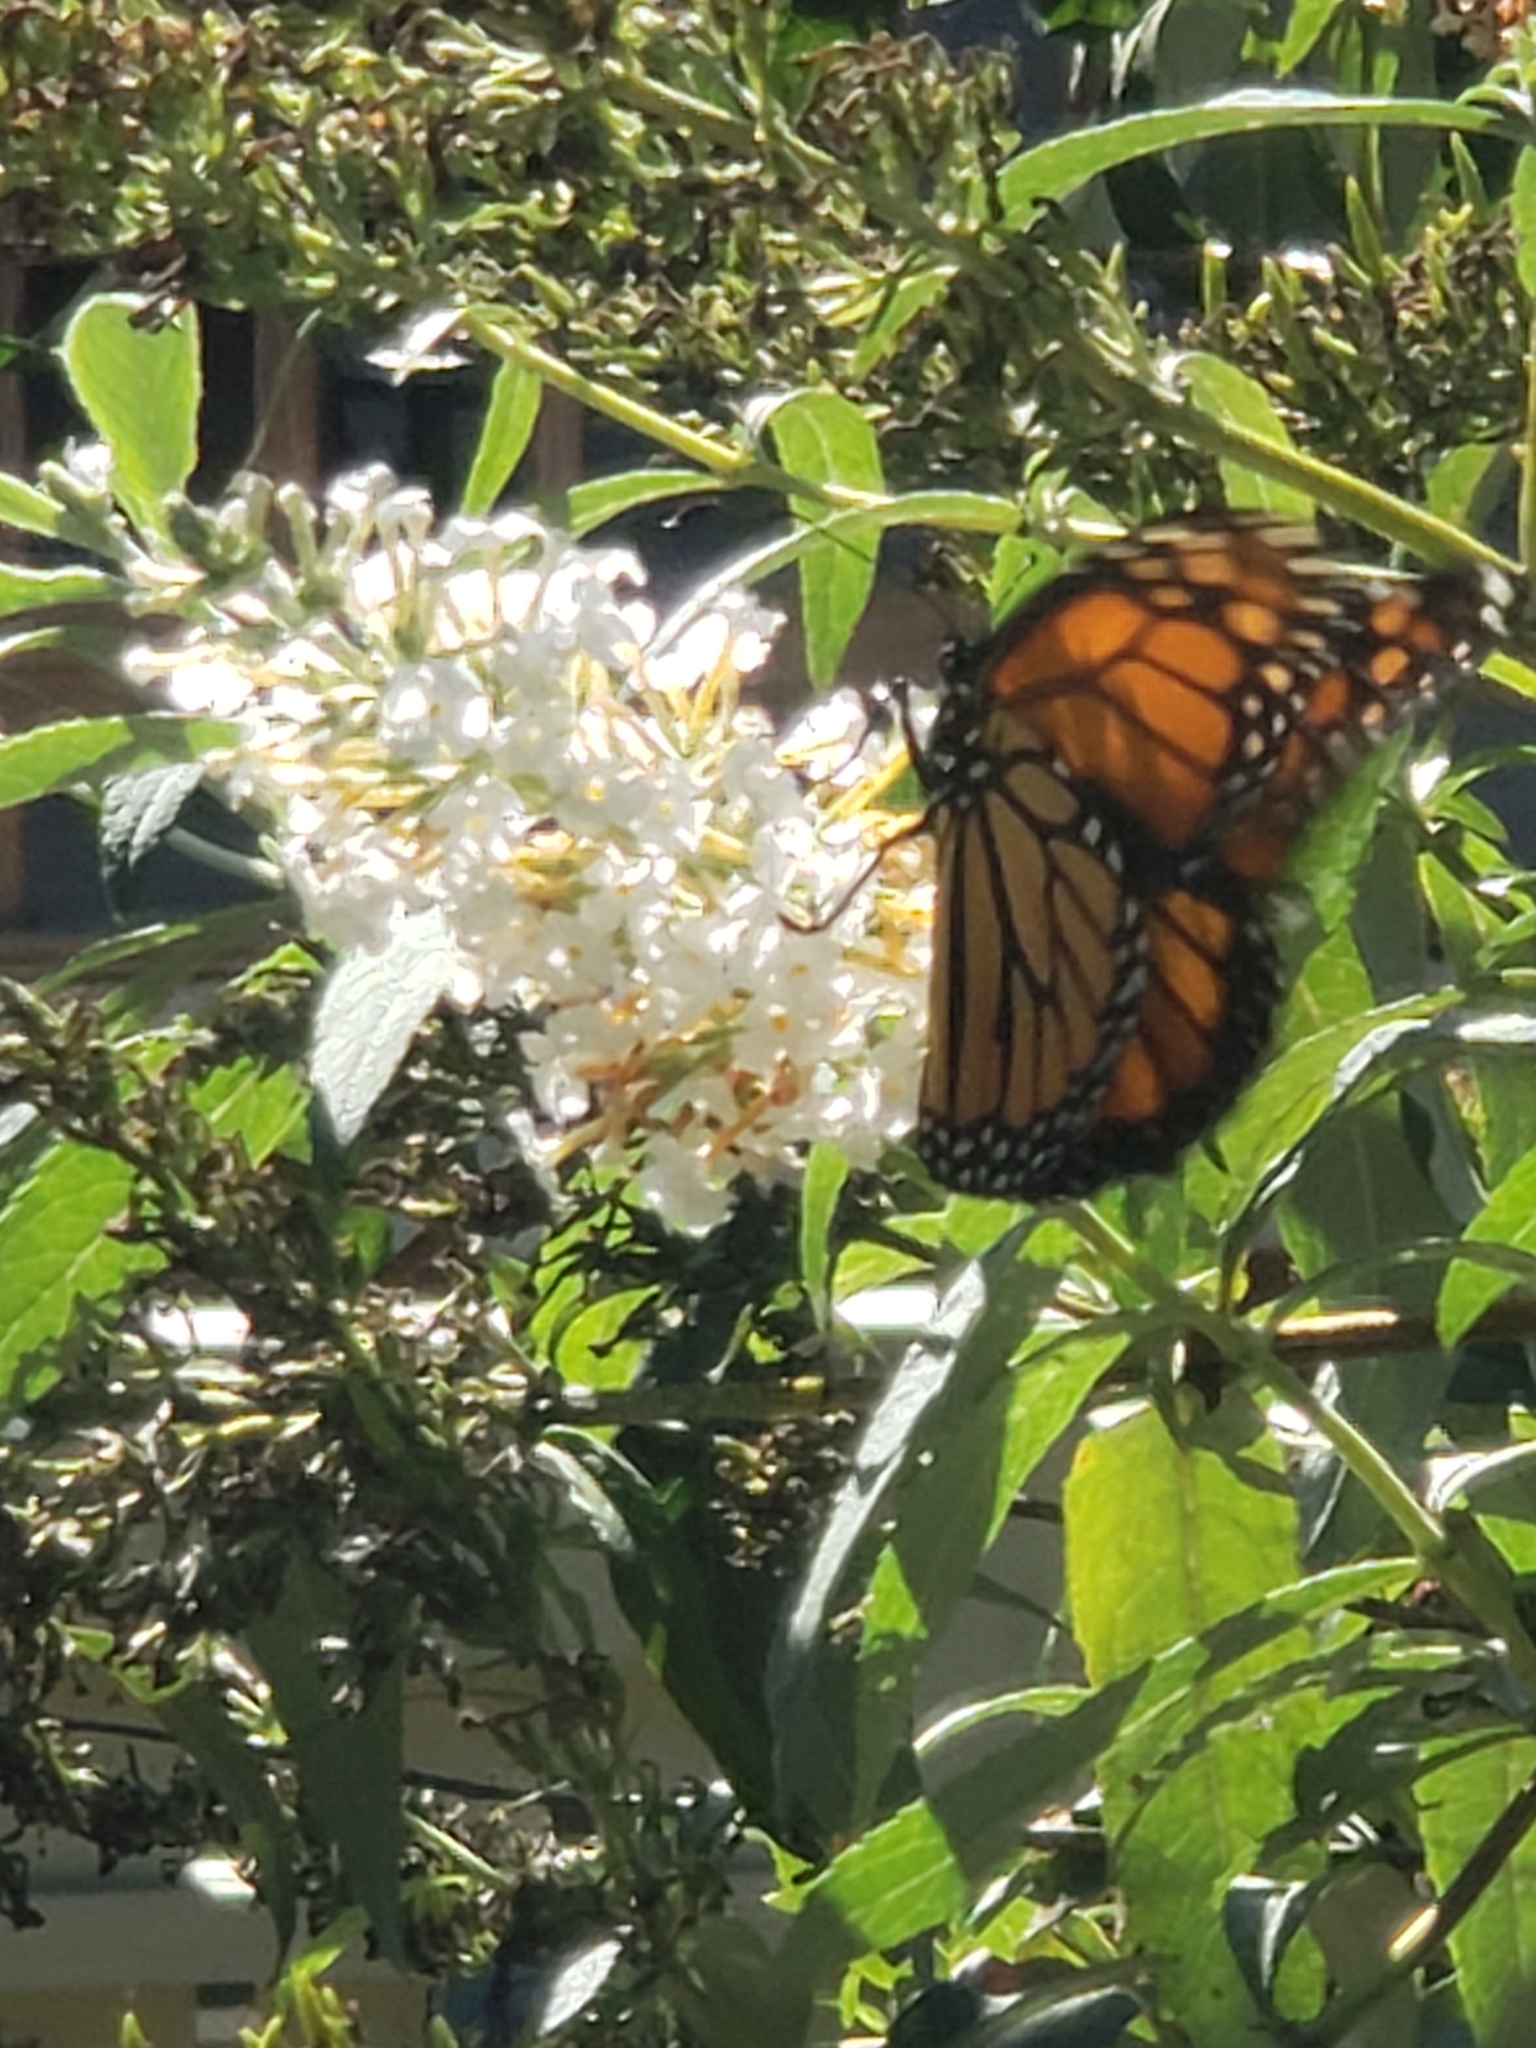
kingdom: Animalia
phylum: Arthropoda
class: Insecta
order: Lepidoptera
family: Nymphalidae
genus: Danaus
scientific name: Danaus plexippus
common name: Monarch
